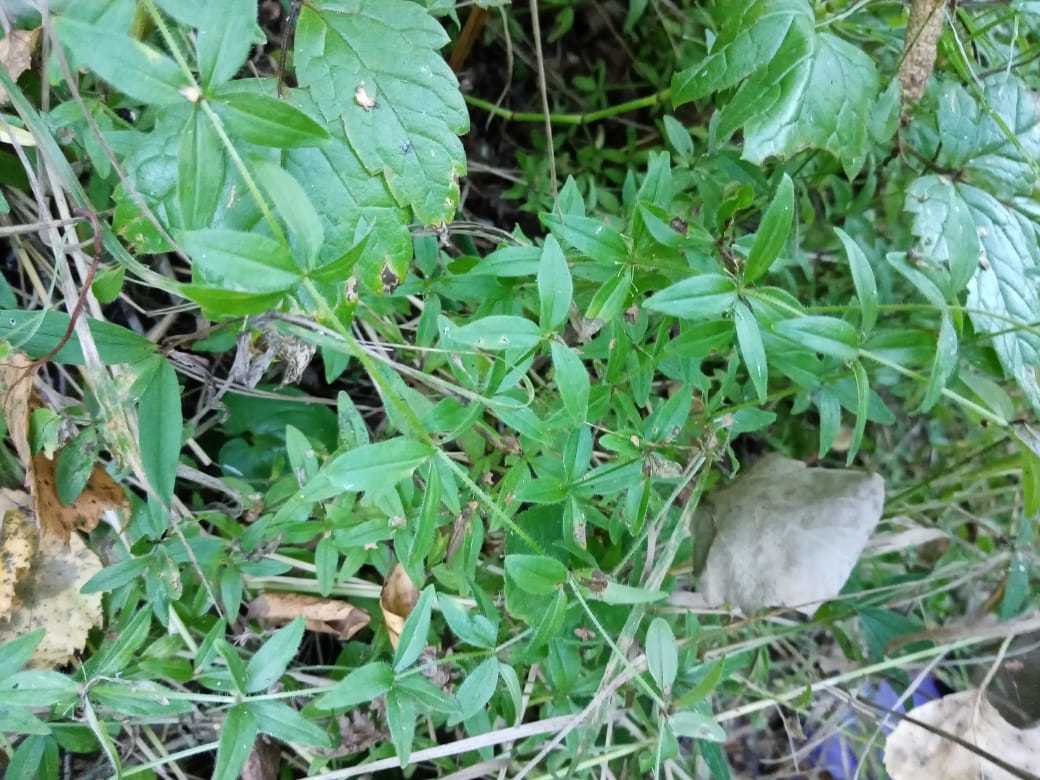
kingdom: Plantae
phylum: Tracheophyta
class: Magnoliopsida
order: Gentianales
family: Rubiaceae
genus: Cruciata
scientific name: Cruciata glabra
